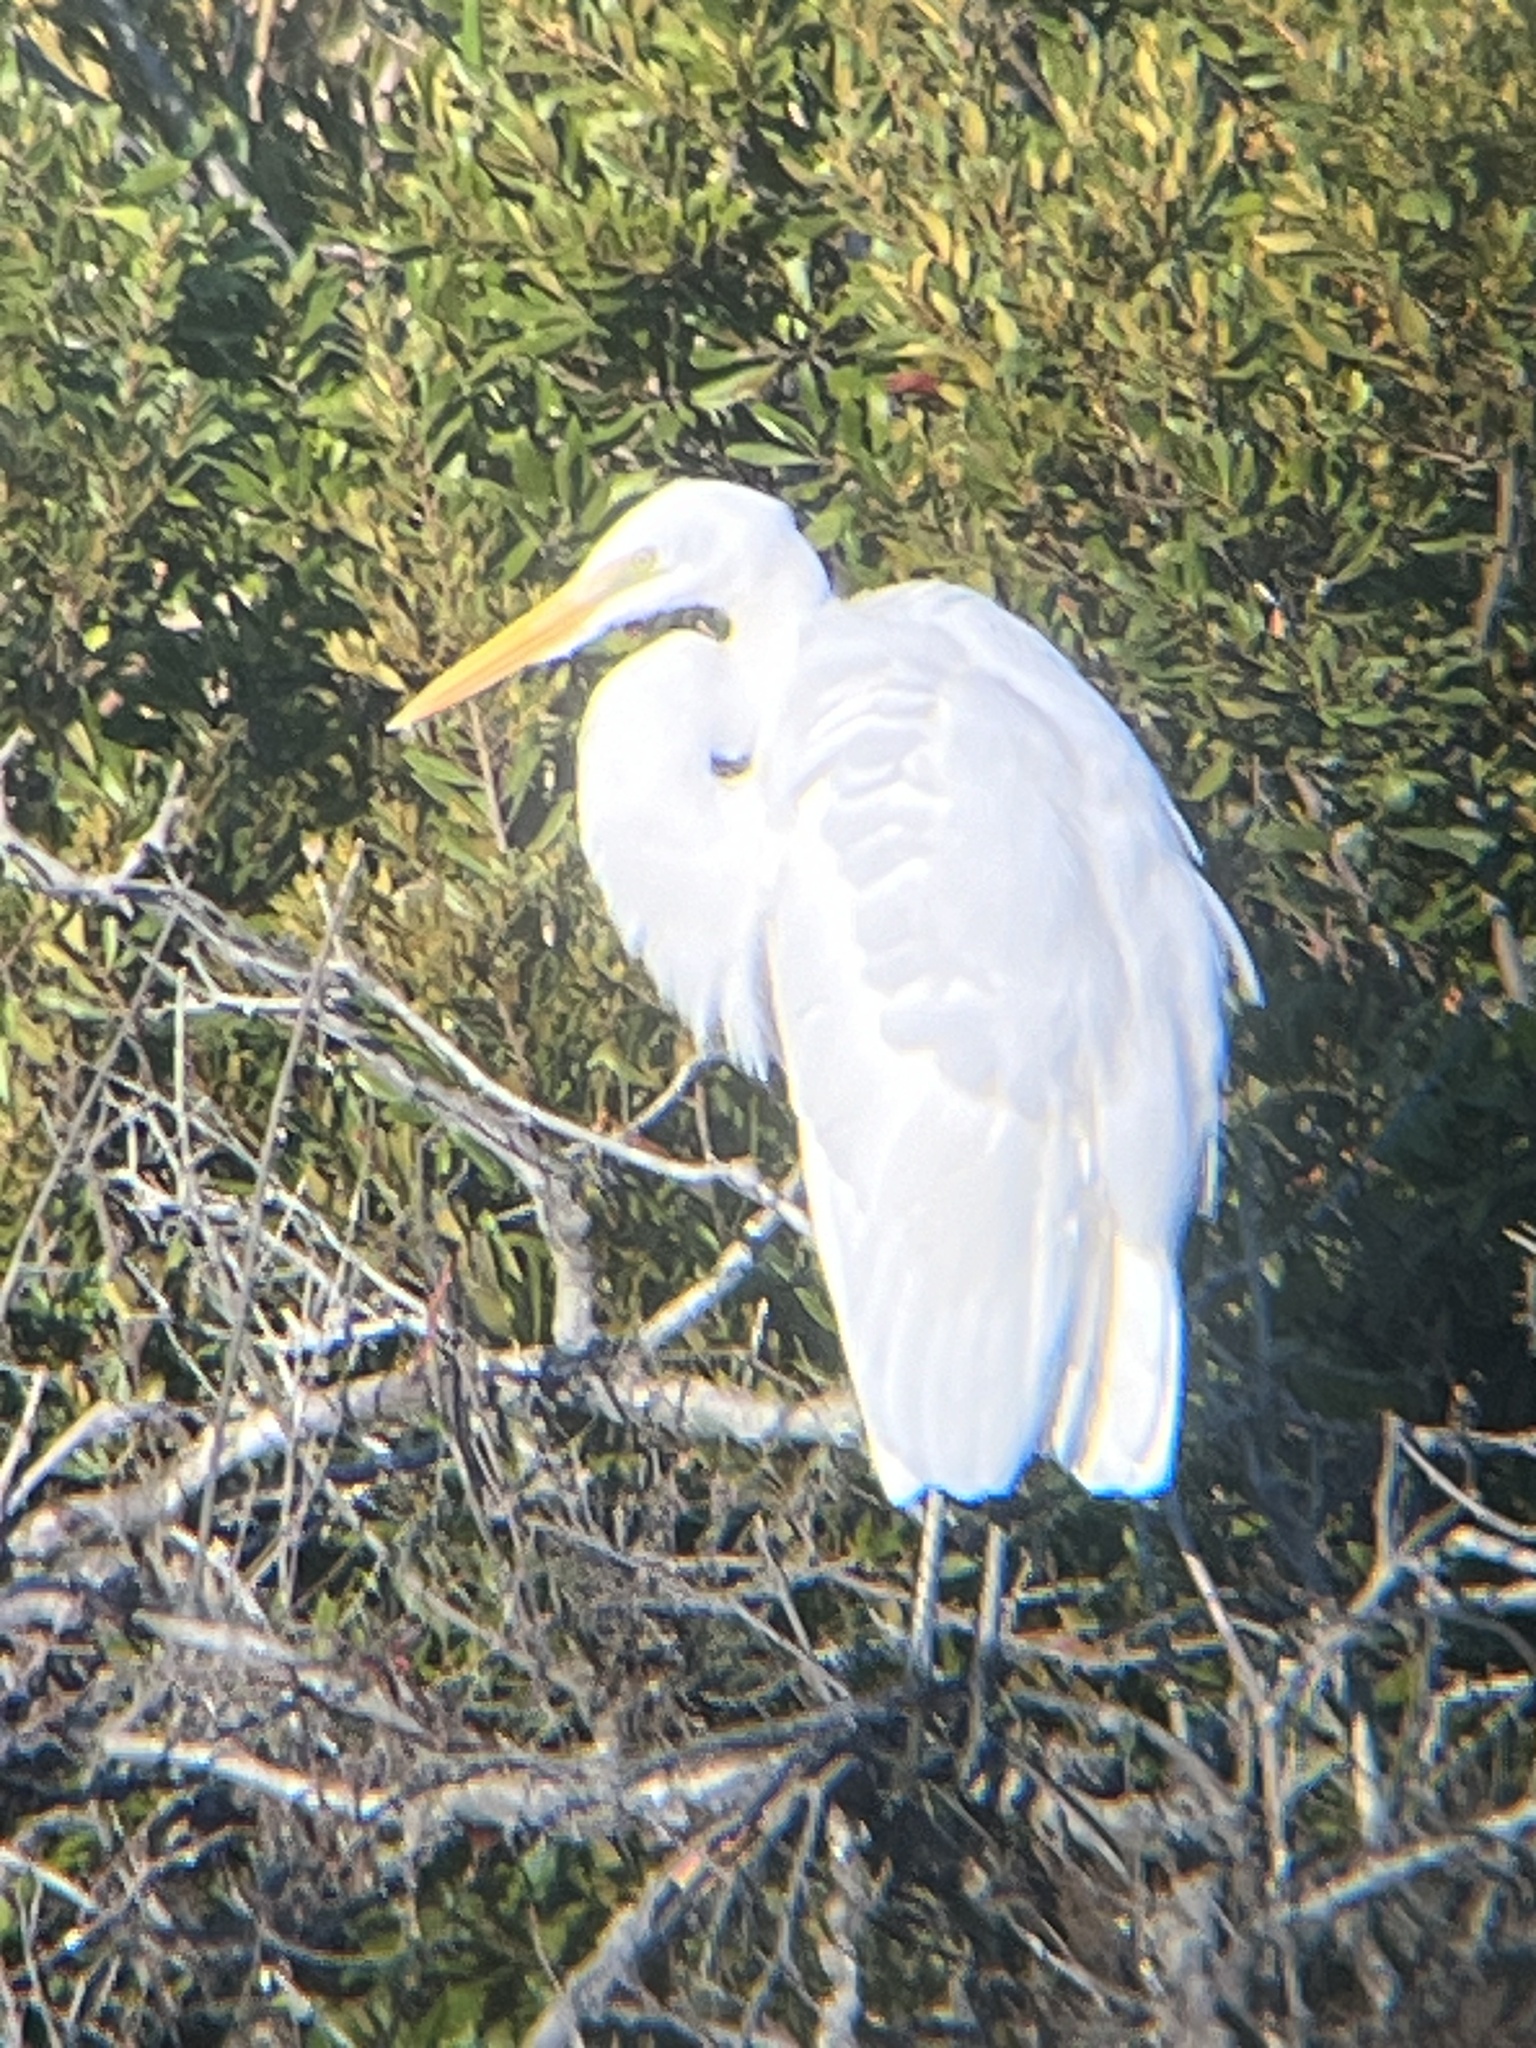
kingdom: Animalia
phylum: Chordata
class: Aves
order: Pelecaniformes
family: Ardeidae
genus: Ardea
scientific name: Ardea alba
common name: Great egret
